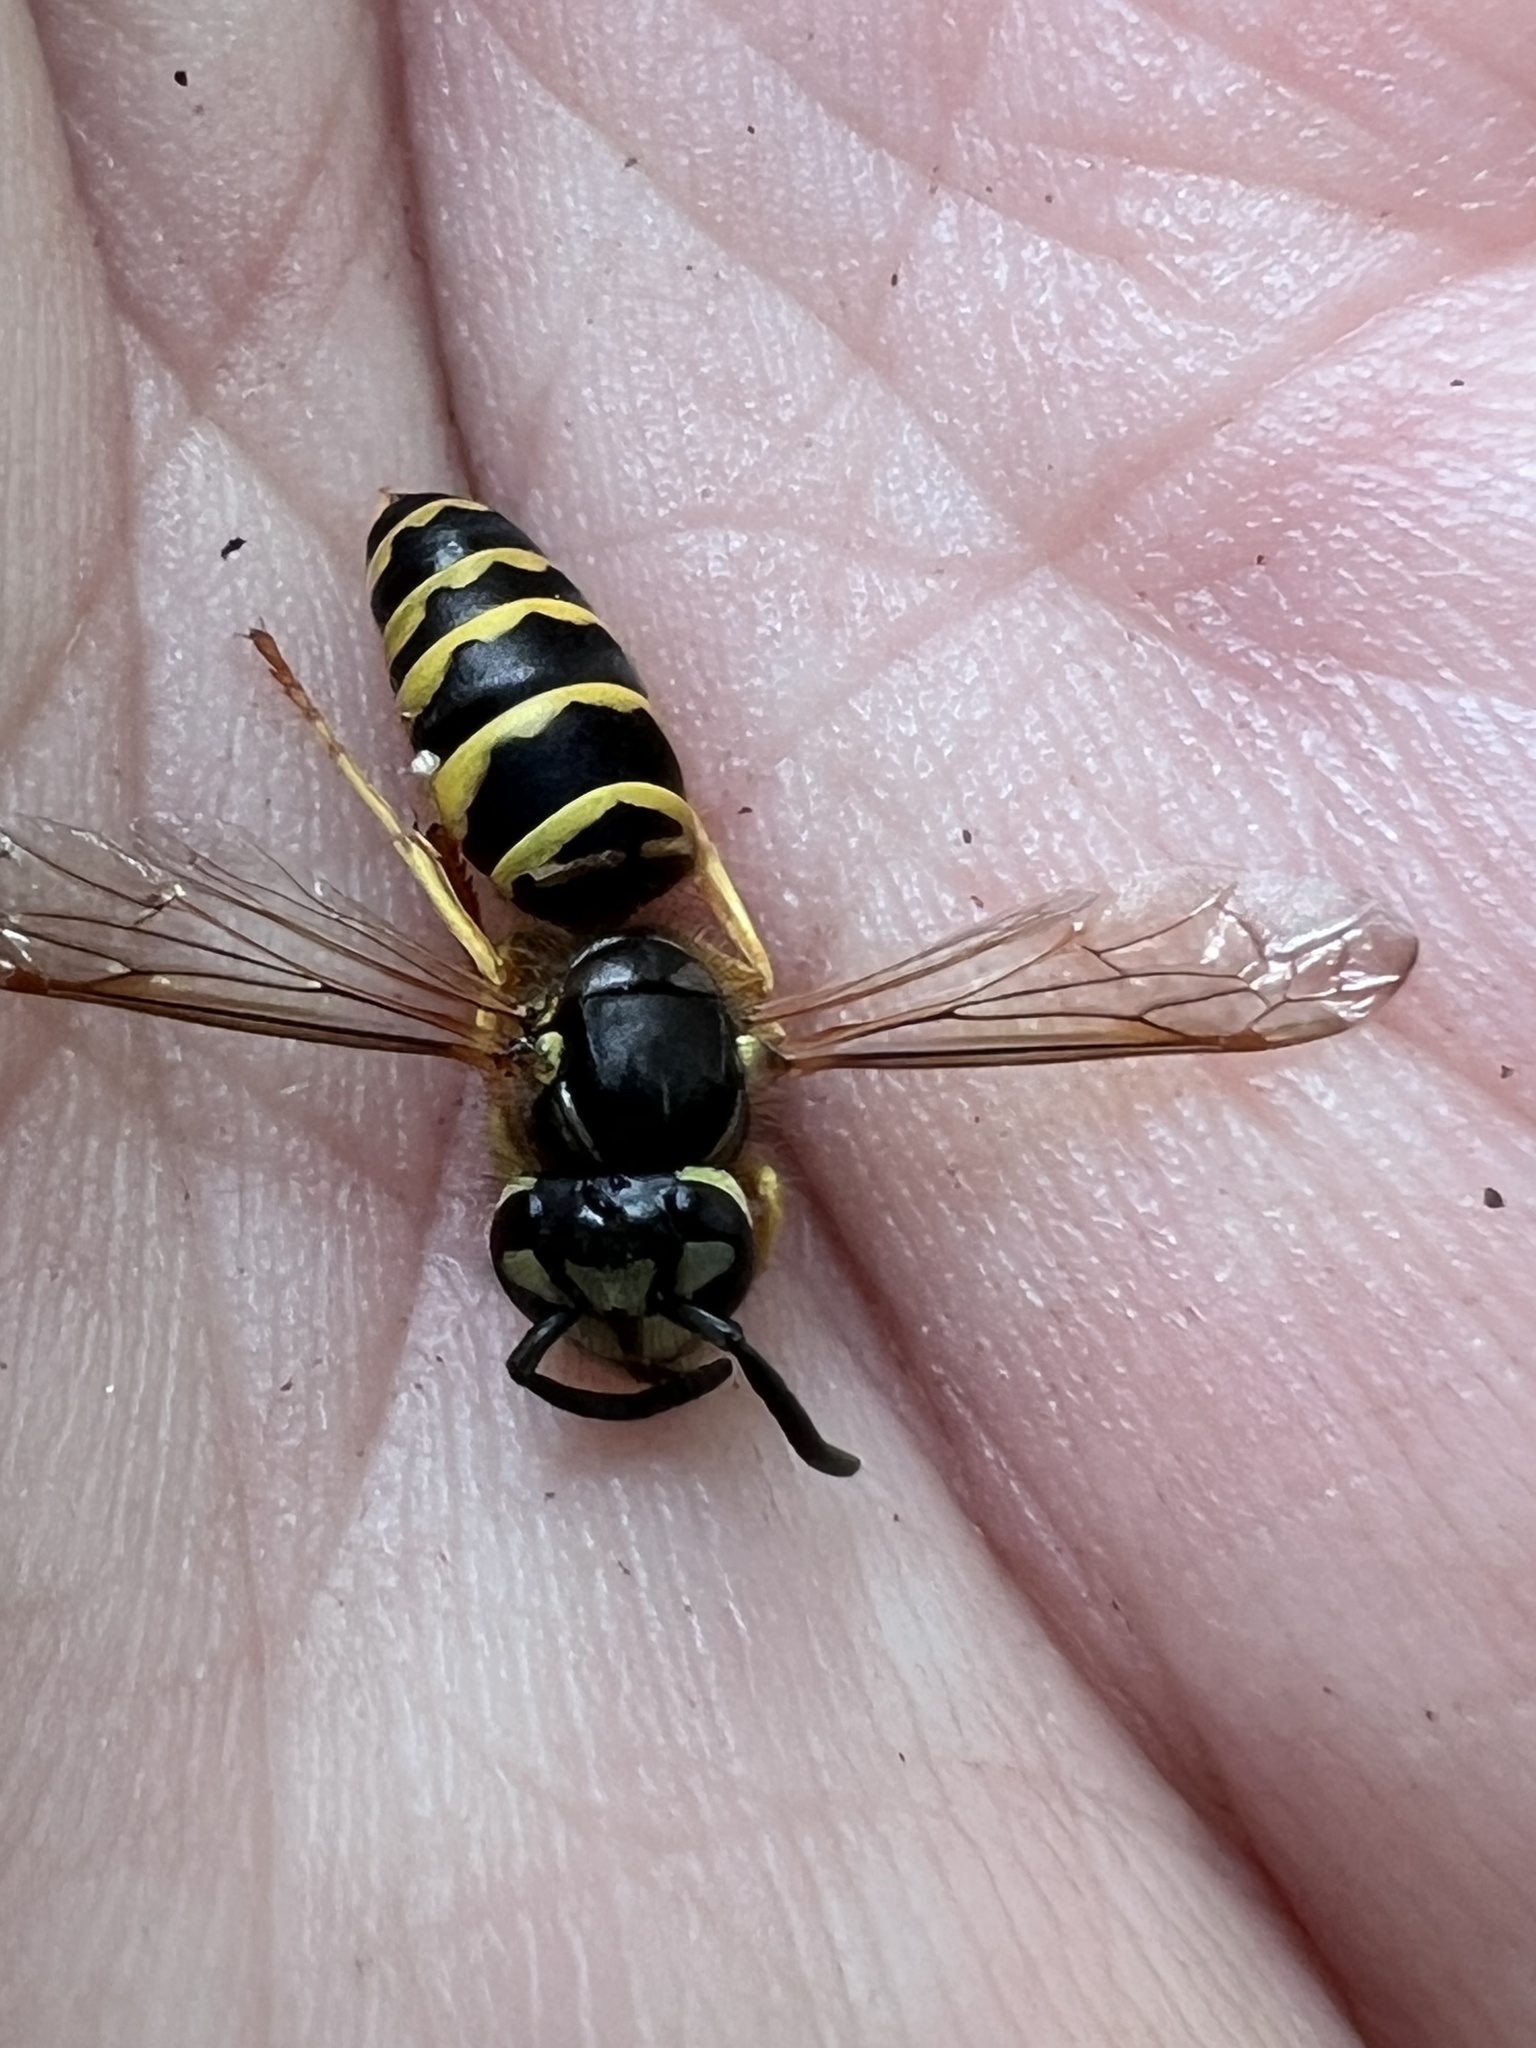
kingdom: Animalia
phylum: Arthropoda
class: Insecta
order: Hymenoptera
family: Vespidae
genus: Vespula
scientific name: Vespula maculifrons
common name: Eastern yellowjacket
